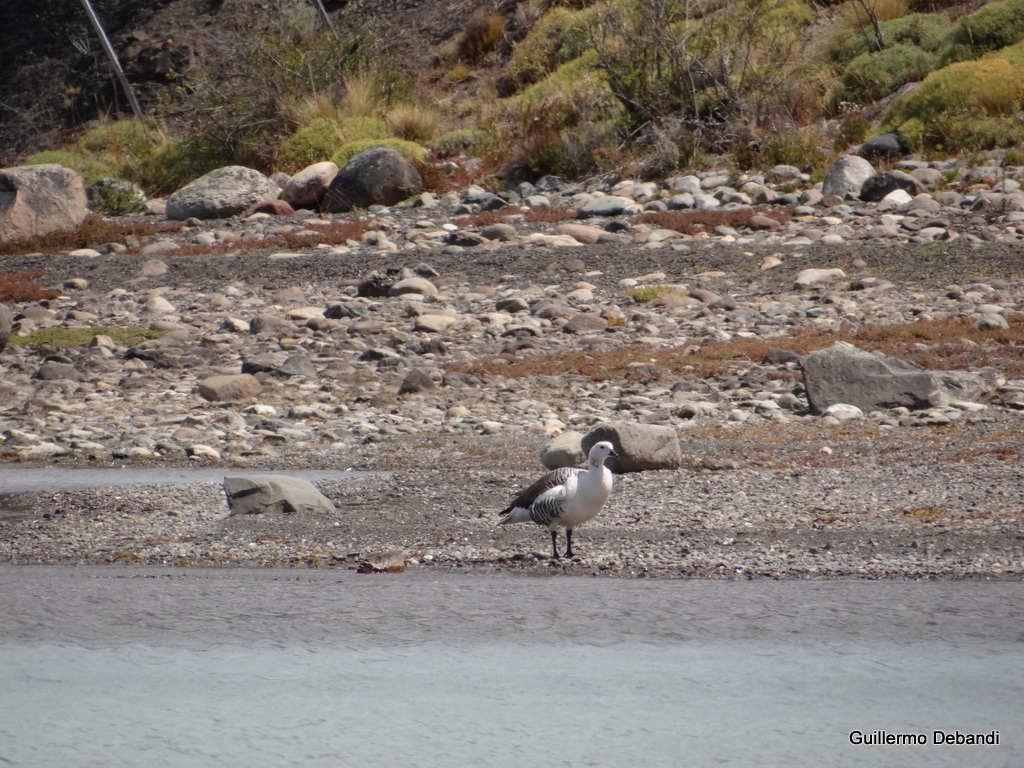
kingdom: Animalia
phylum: Chordata
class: Aves
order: Anseriformes
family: Anatidae
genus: Chloephaga
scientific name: Chloephaga picta
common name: Upland goose
